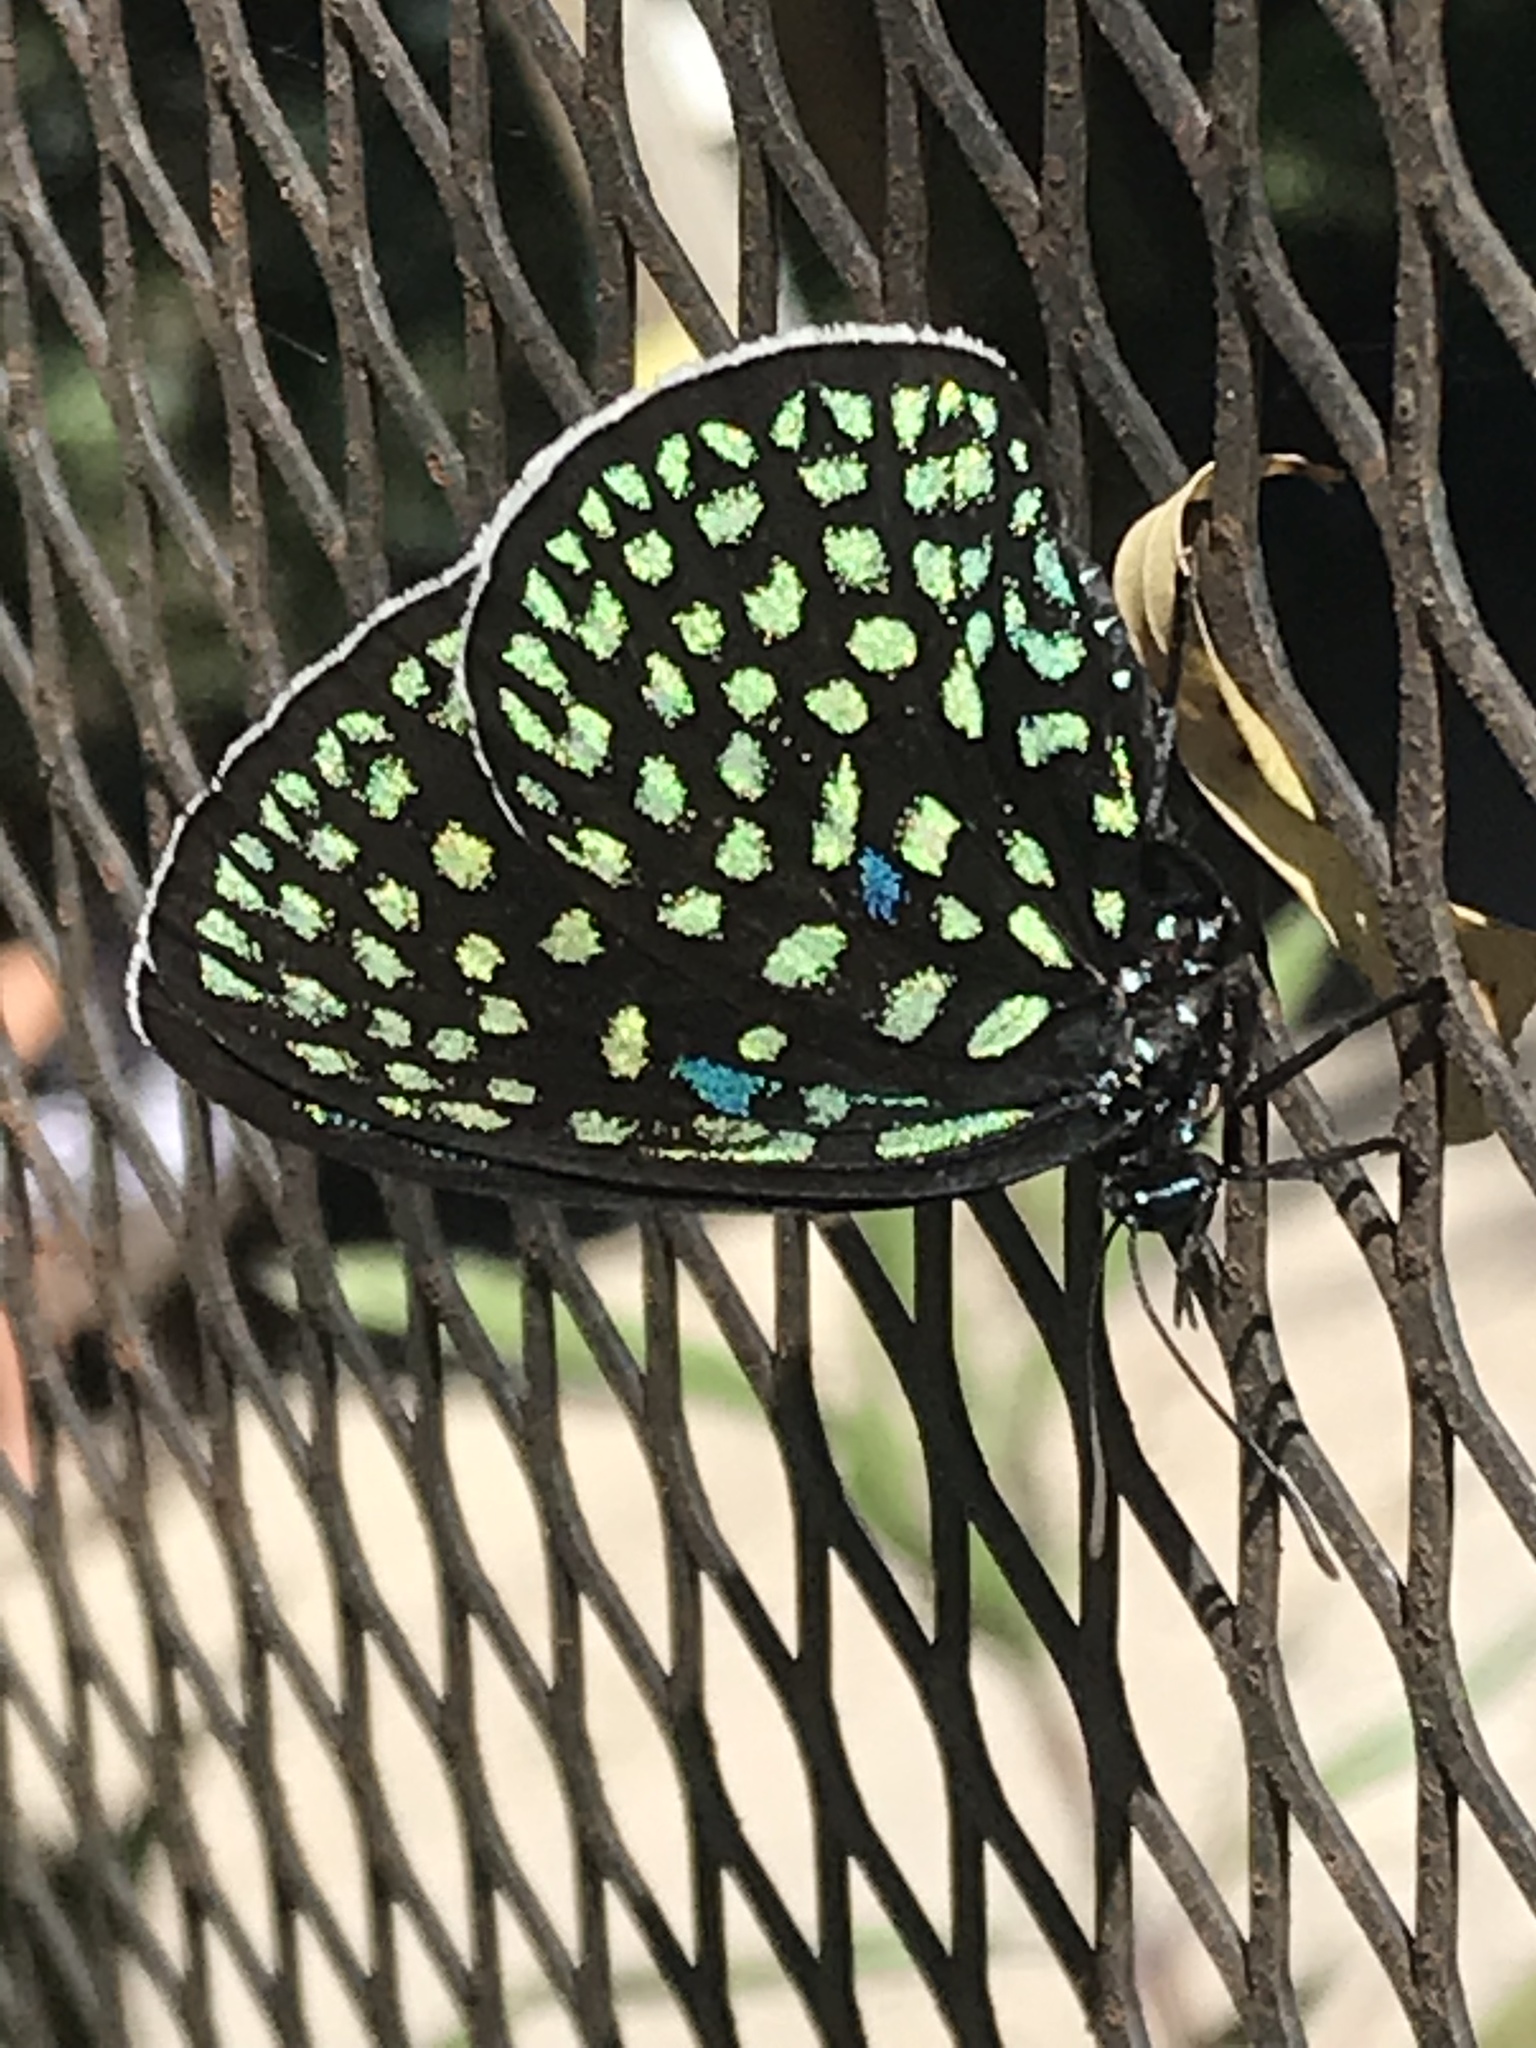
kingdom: Animalia
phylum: Arthropoda
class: Insecta
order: Lepidoptera
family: Lycaenidae
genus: Eumaeus
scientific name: Eumaeus childrenae
